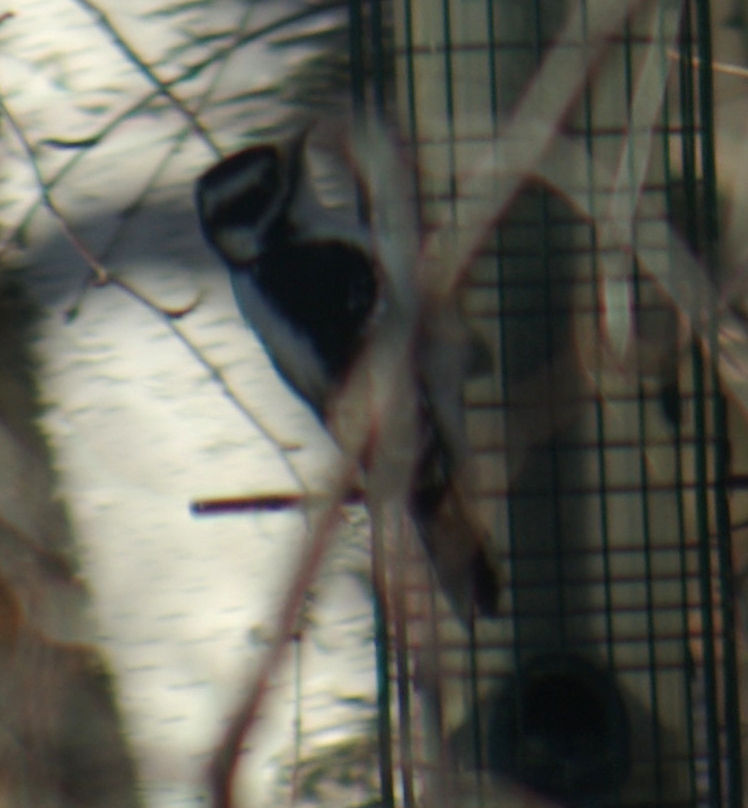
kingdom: Animalia
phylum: Chordata
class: Aves
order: Piciformes
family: Picidae
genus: Dryobates
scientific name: Dryobates pubescens
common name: Downy woodpecker
